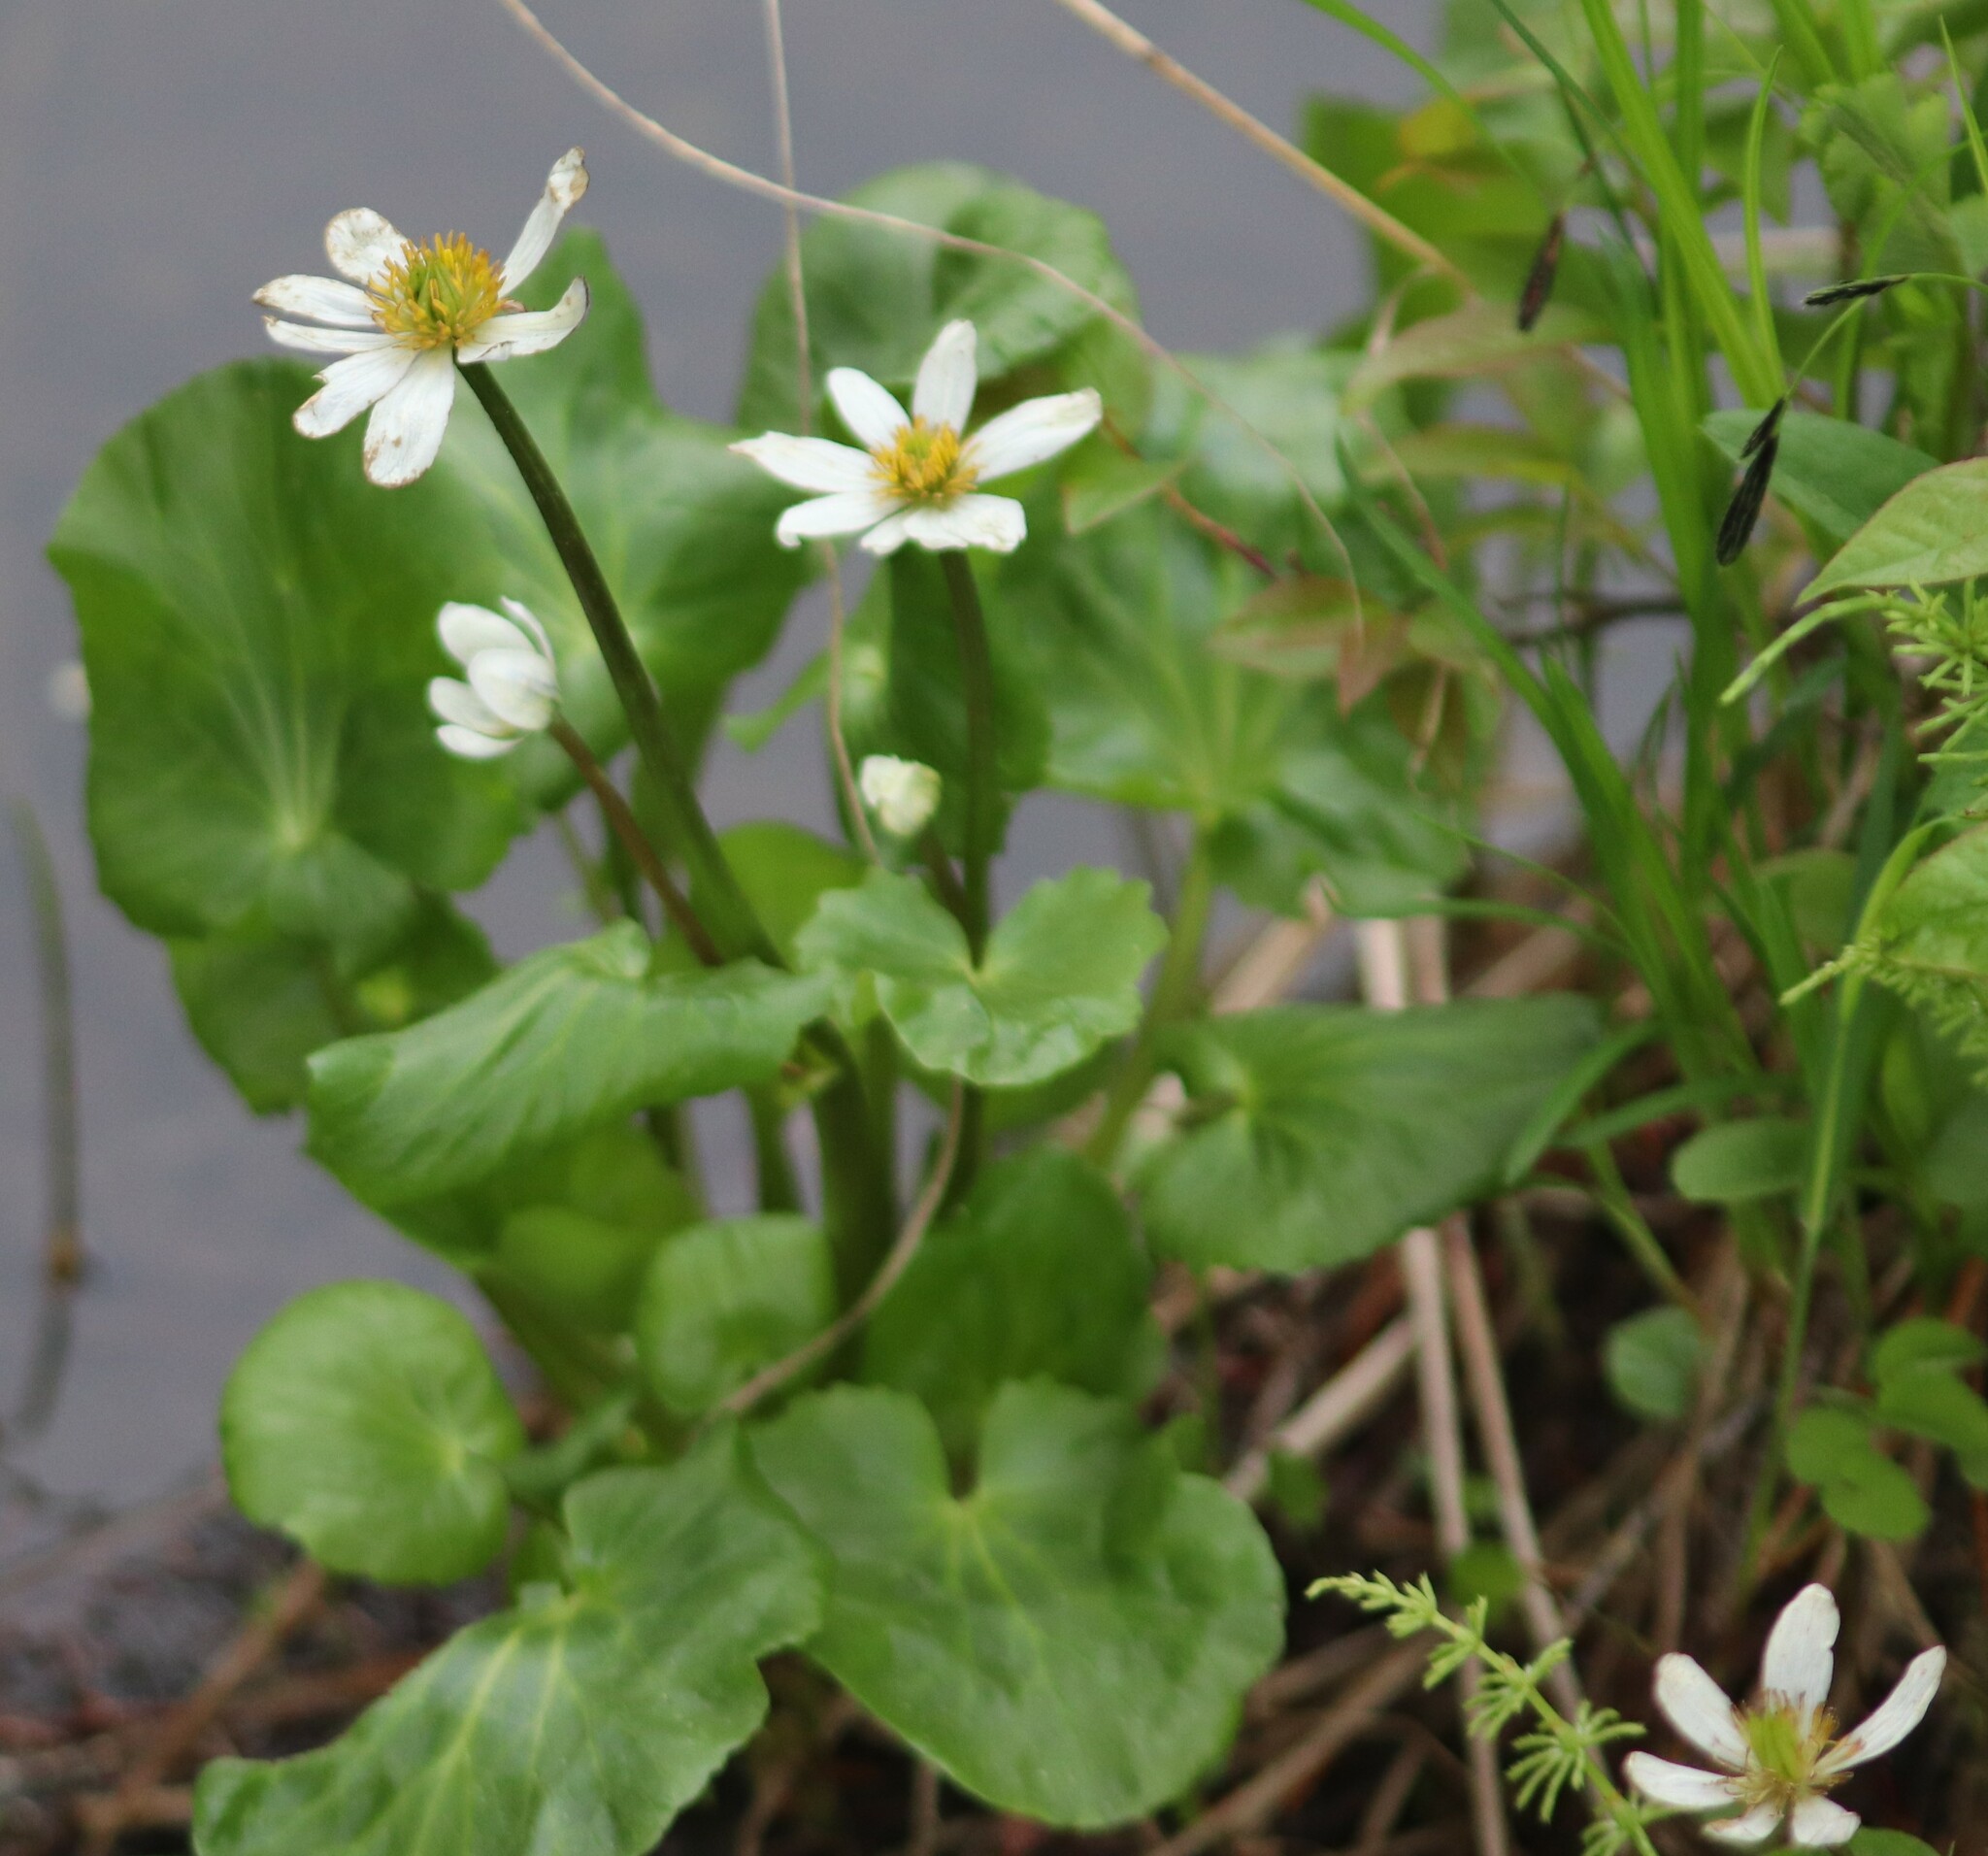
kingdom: Plantae
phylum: Tracheophyta
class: Magnoliopsida
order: Ranunculales
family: Ranunculaceae
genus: Caltha
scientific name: Caltha leptosepala
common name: Elkslip
